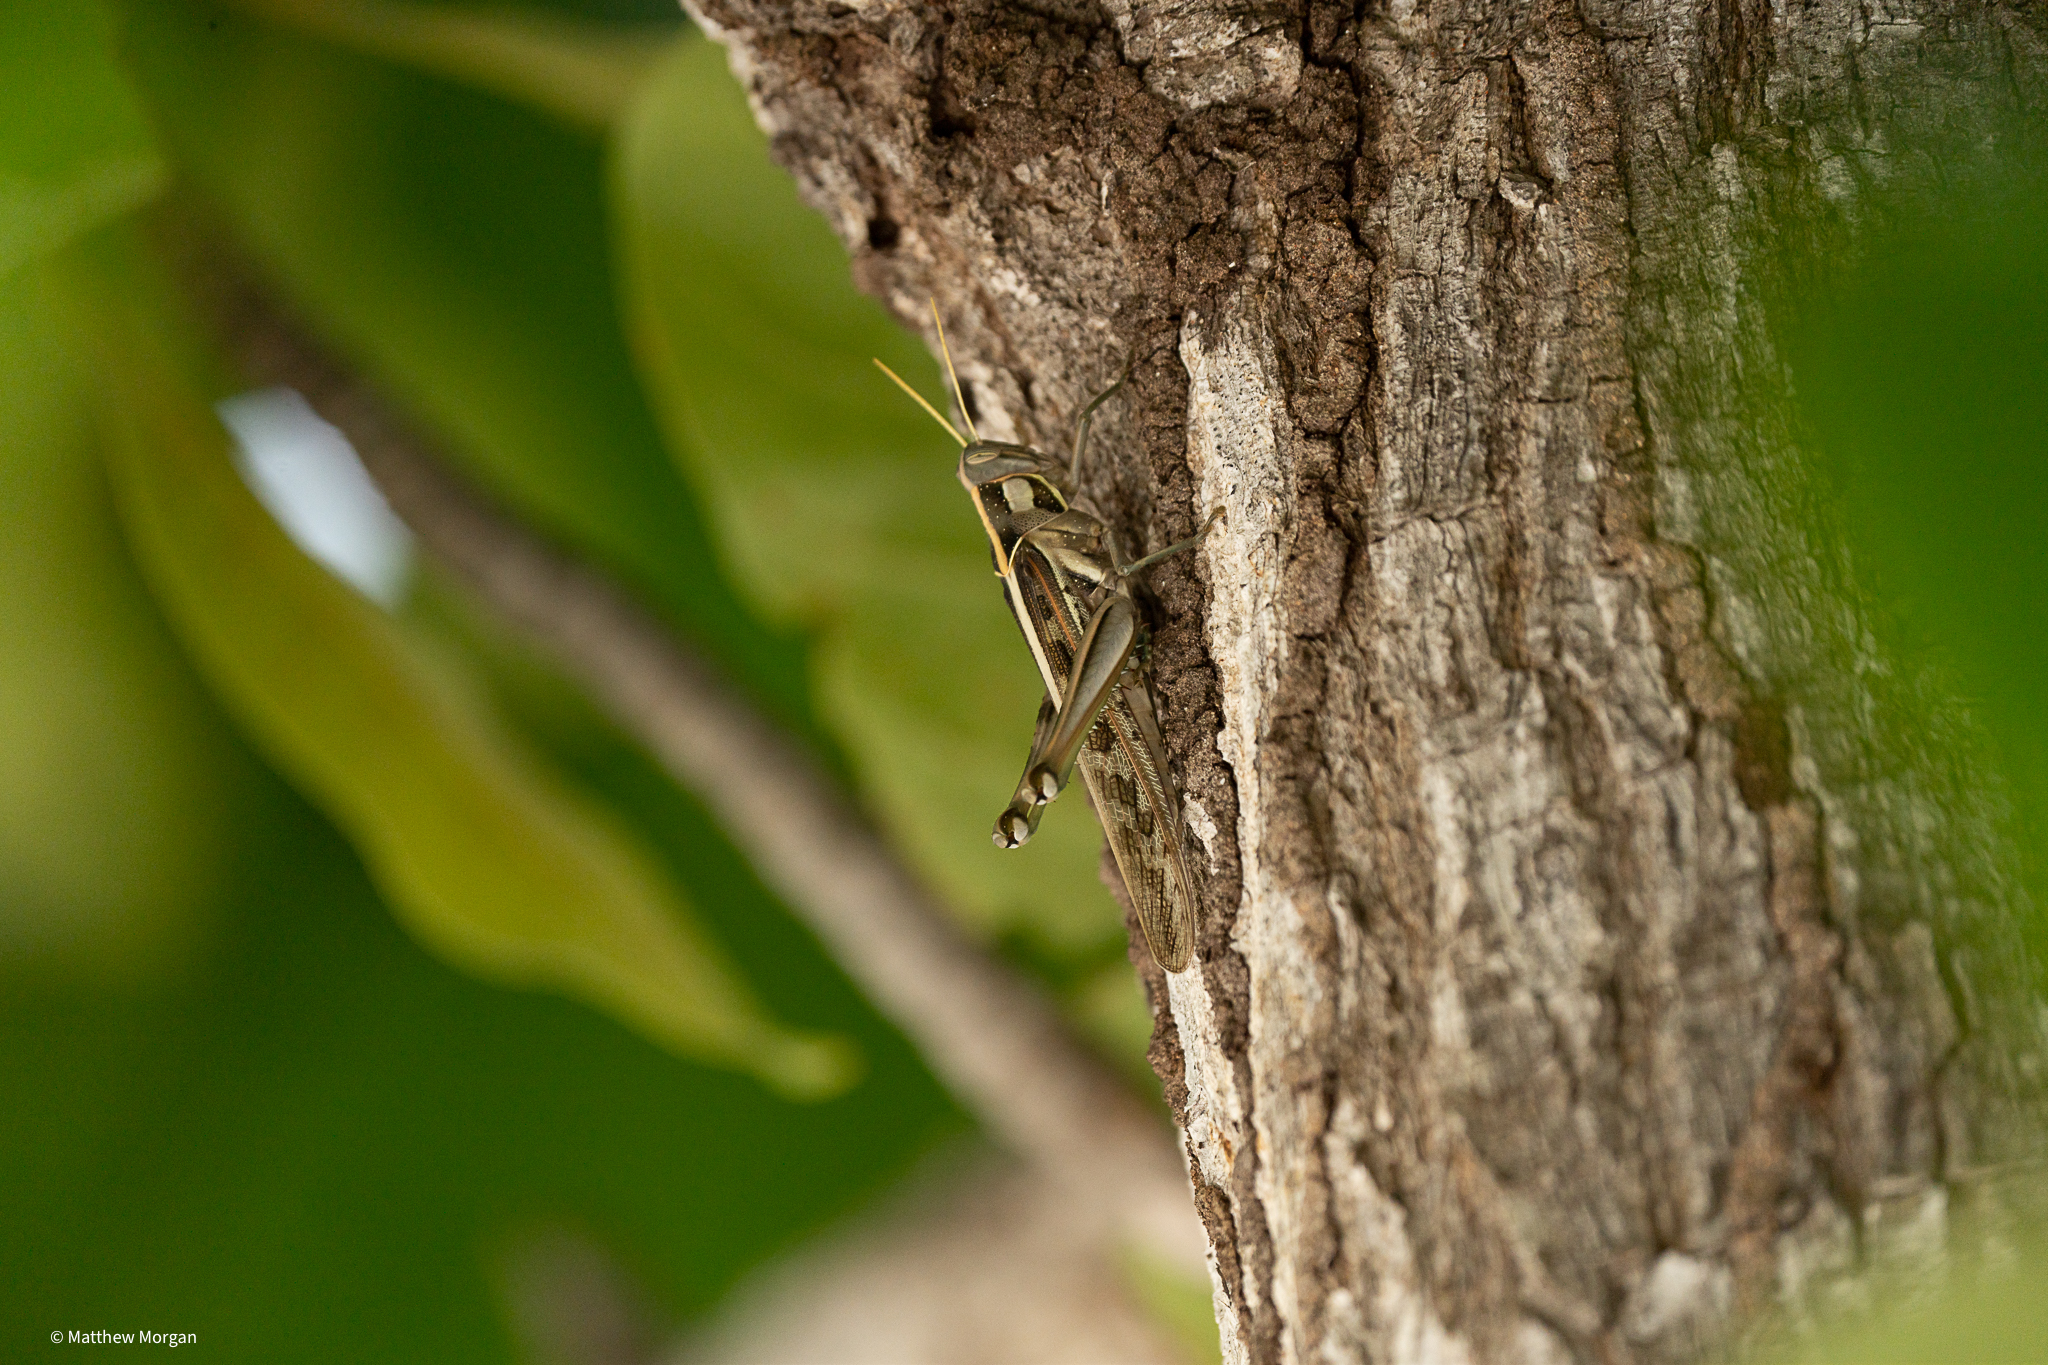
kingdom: Animalia
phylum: Arthropoda
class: Insecta
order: Orthoptera
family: Acrididae
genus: Cyrtacanthacris
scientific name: Cyrtacanthacris tatarica
